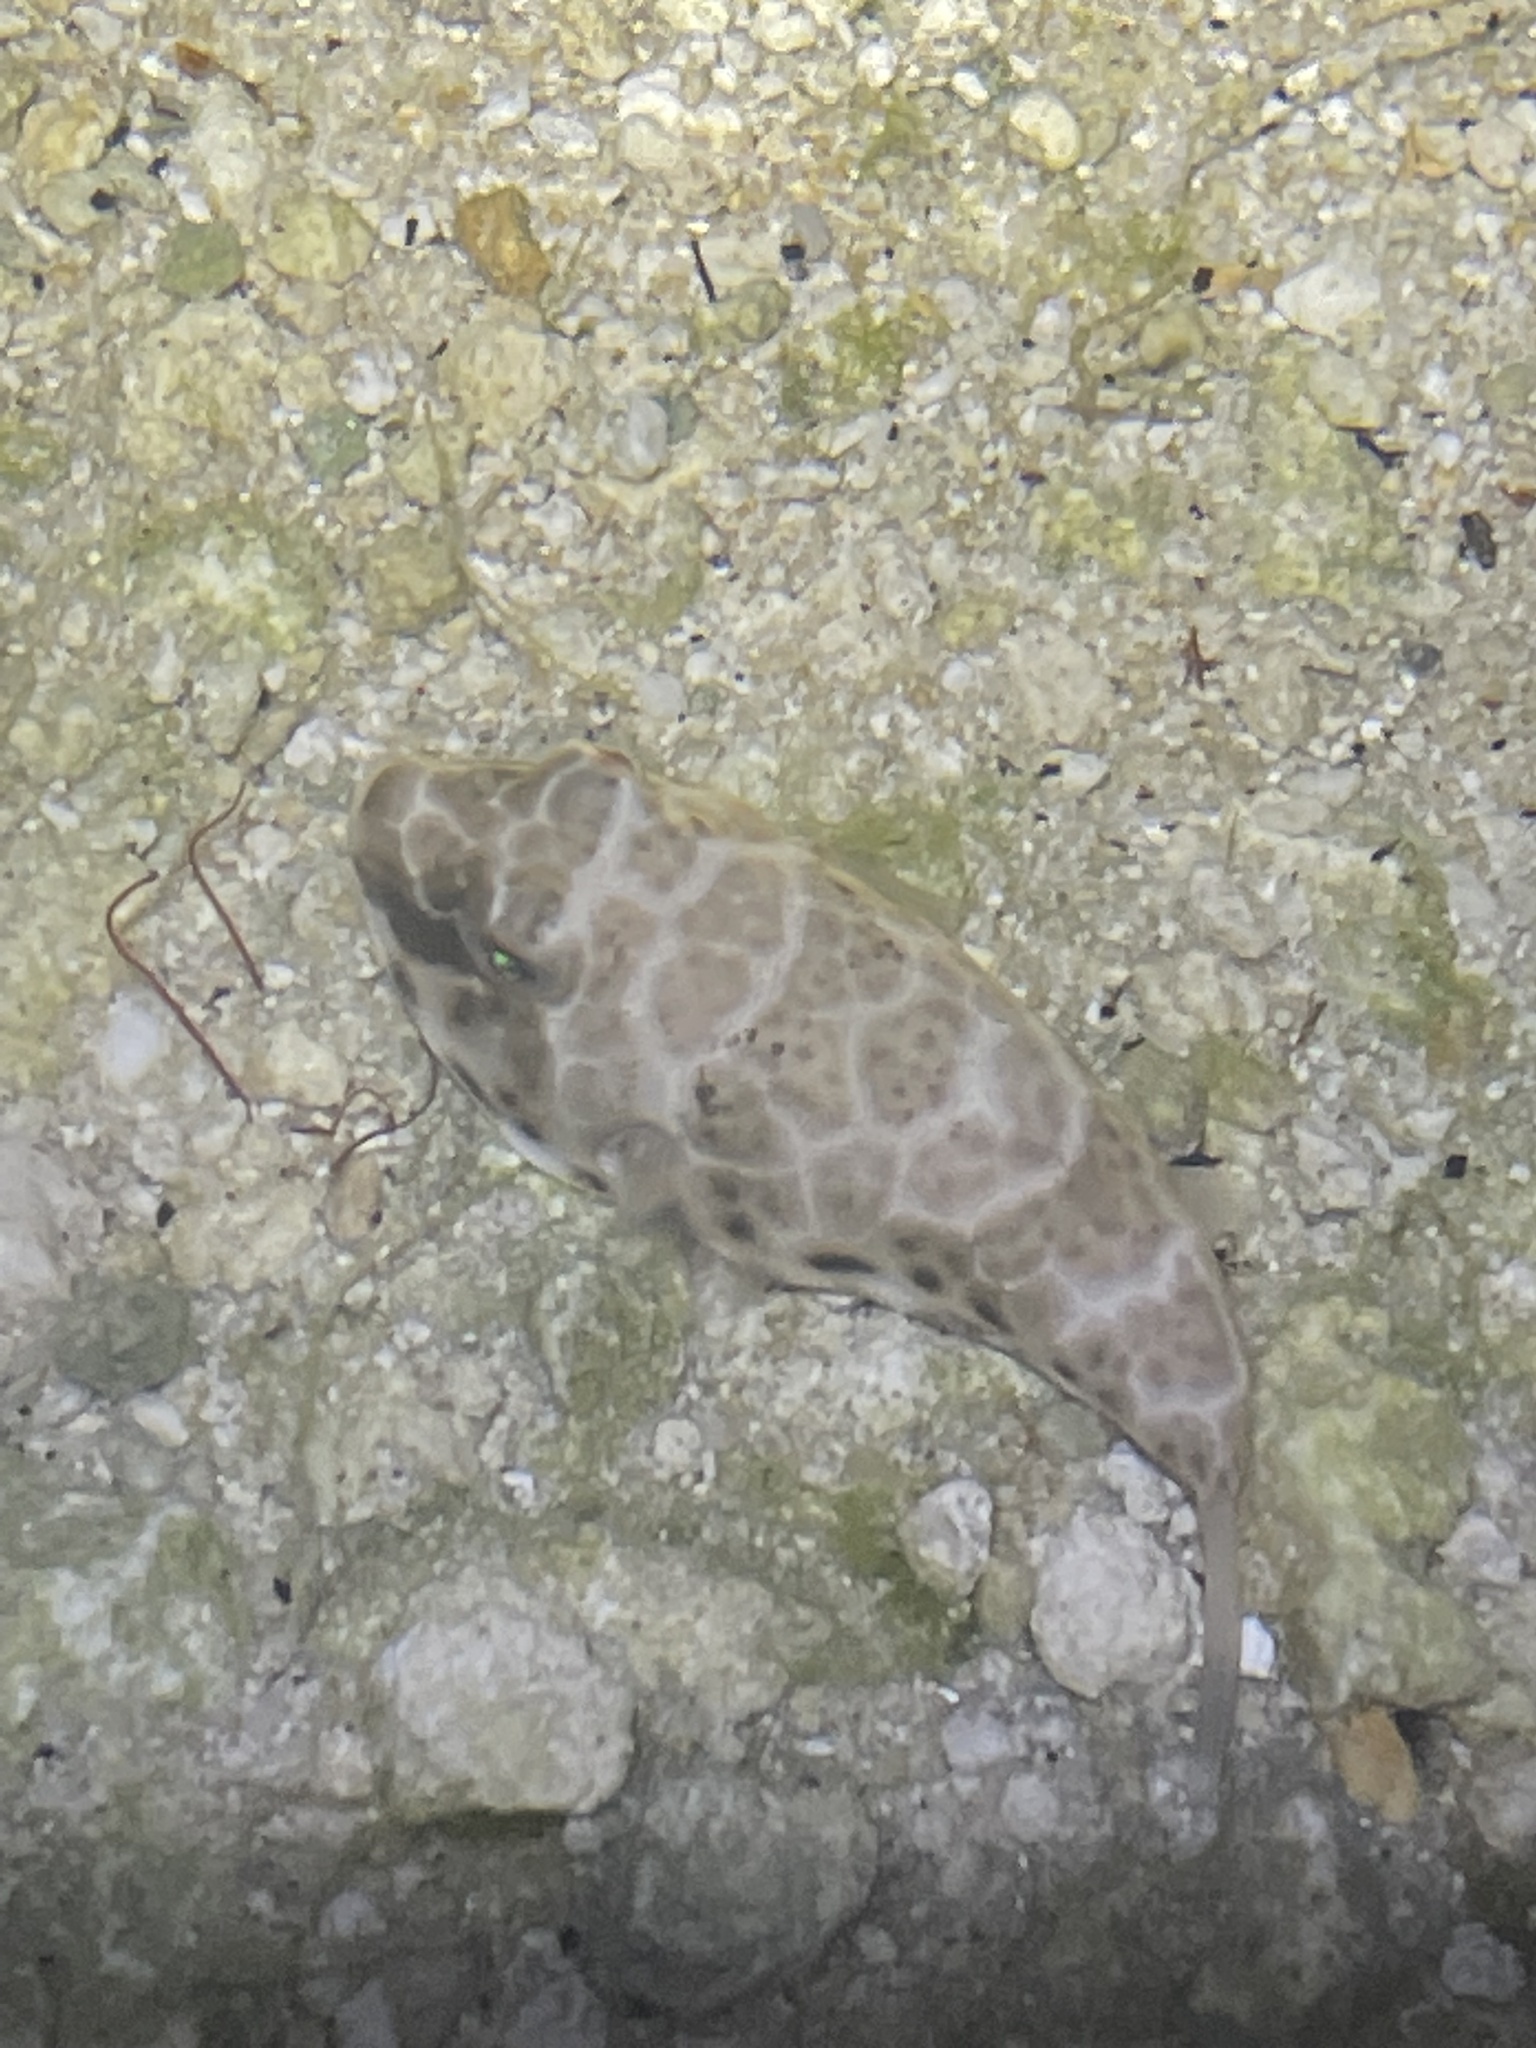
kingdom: Animalia
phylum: Chordata
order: Tetraodontiformes
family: Tetraodontidae
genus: Sphoeroides
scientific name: Sphoeroides testudineus
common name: Checkered puffer
